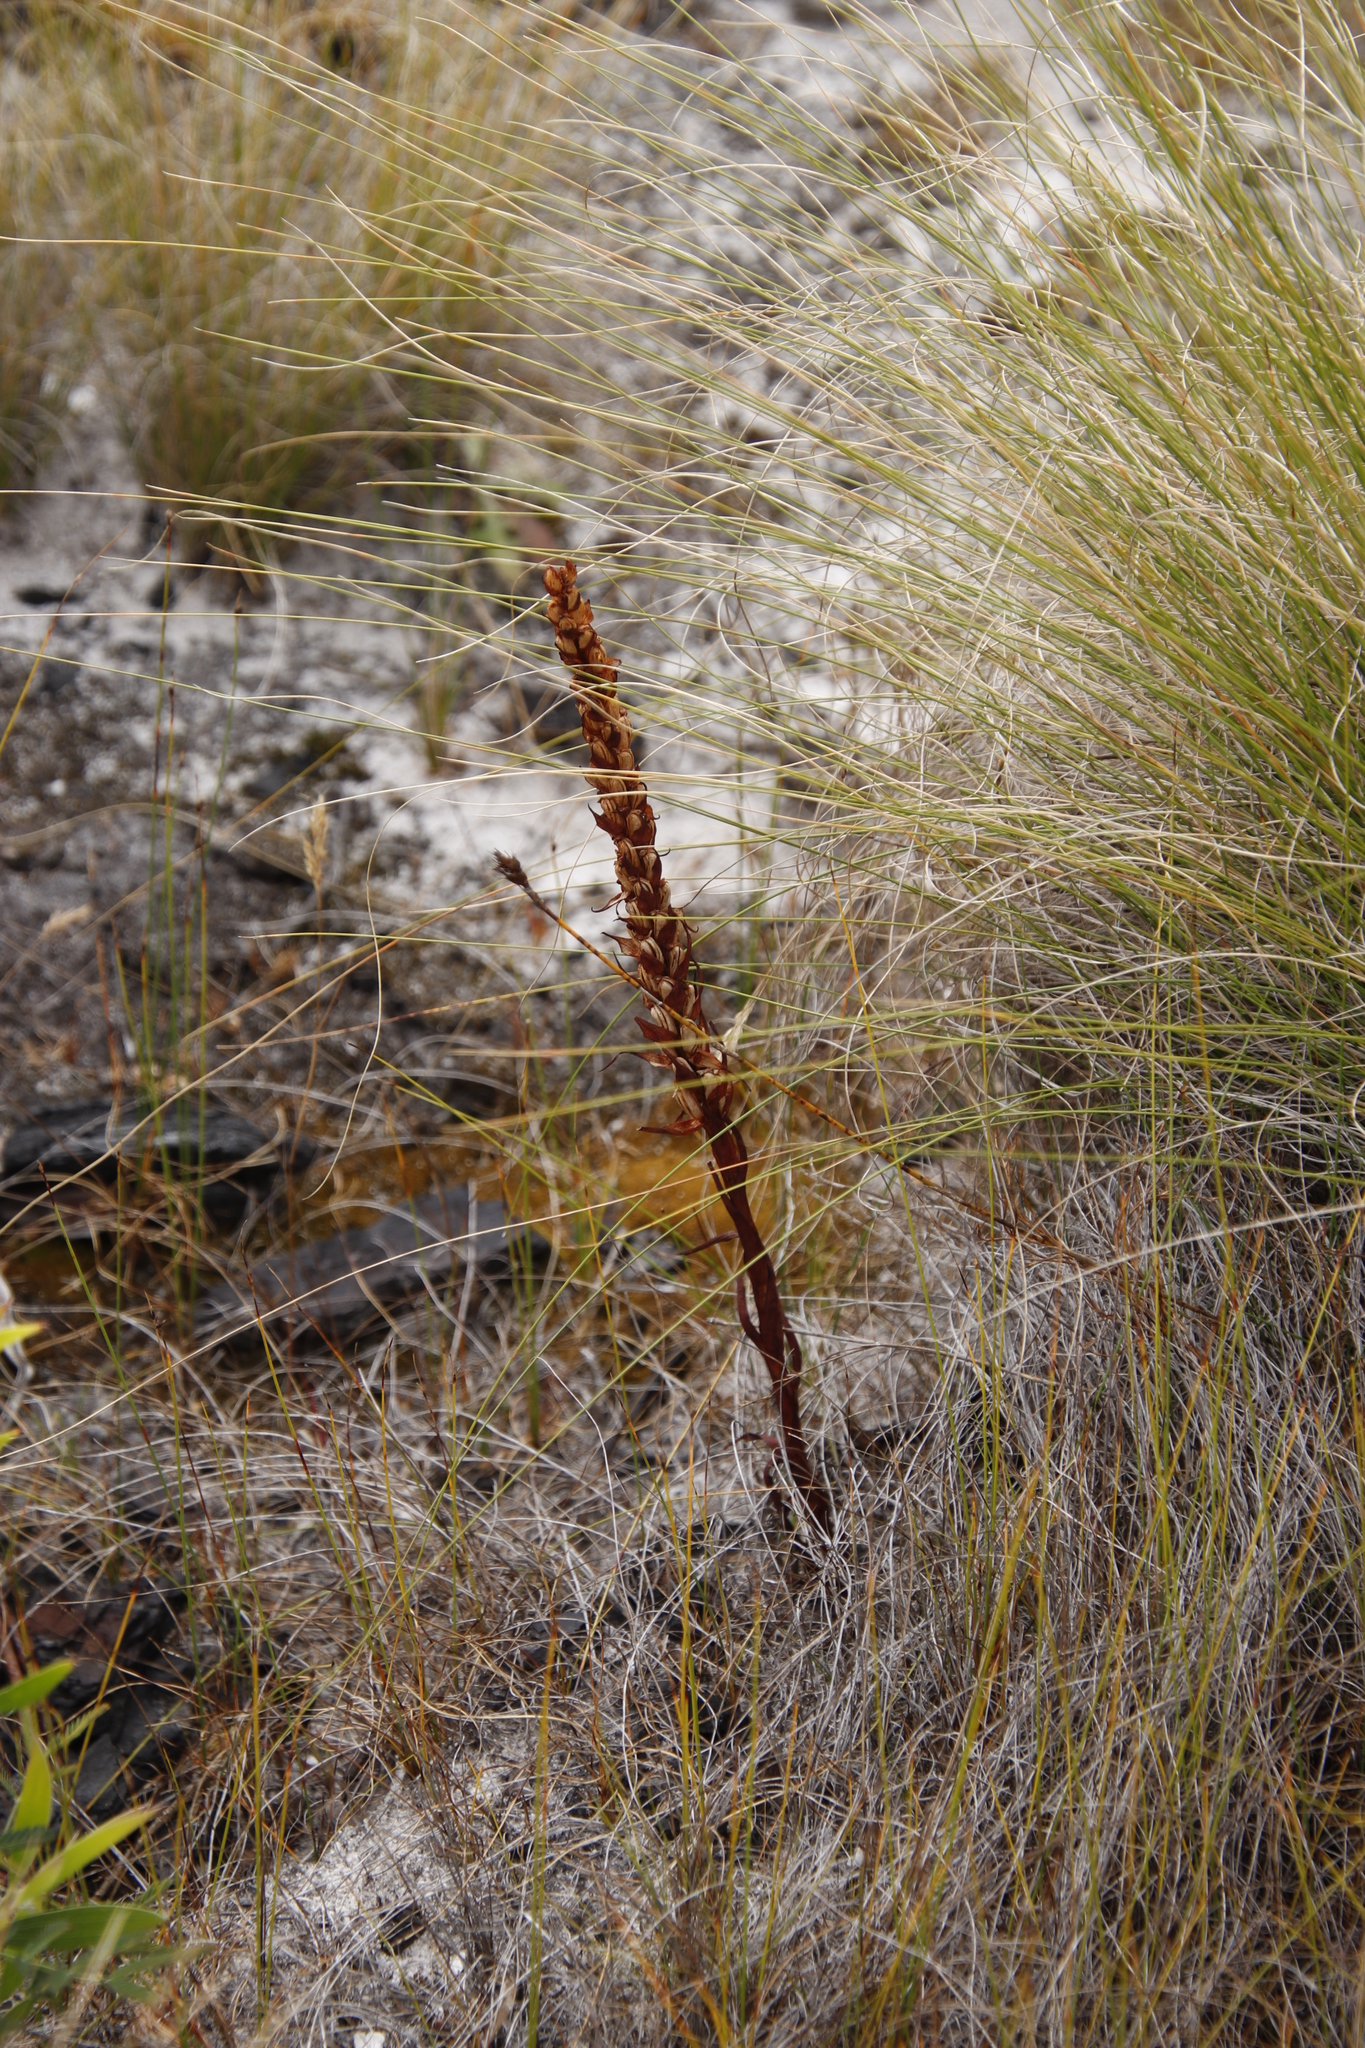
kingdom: Plantae
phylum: Tracheophyta
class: Liliopsida
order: Asparagales
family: Orchidaceae
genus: Disa
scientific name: Disa bracteata
